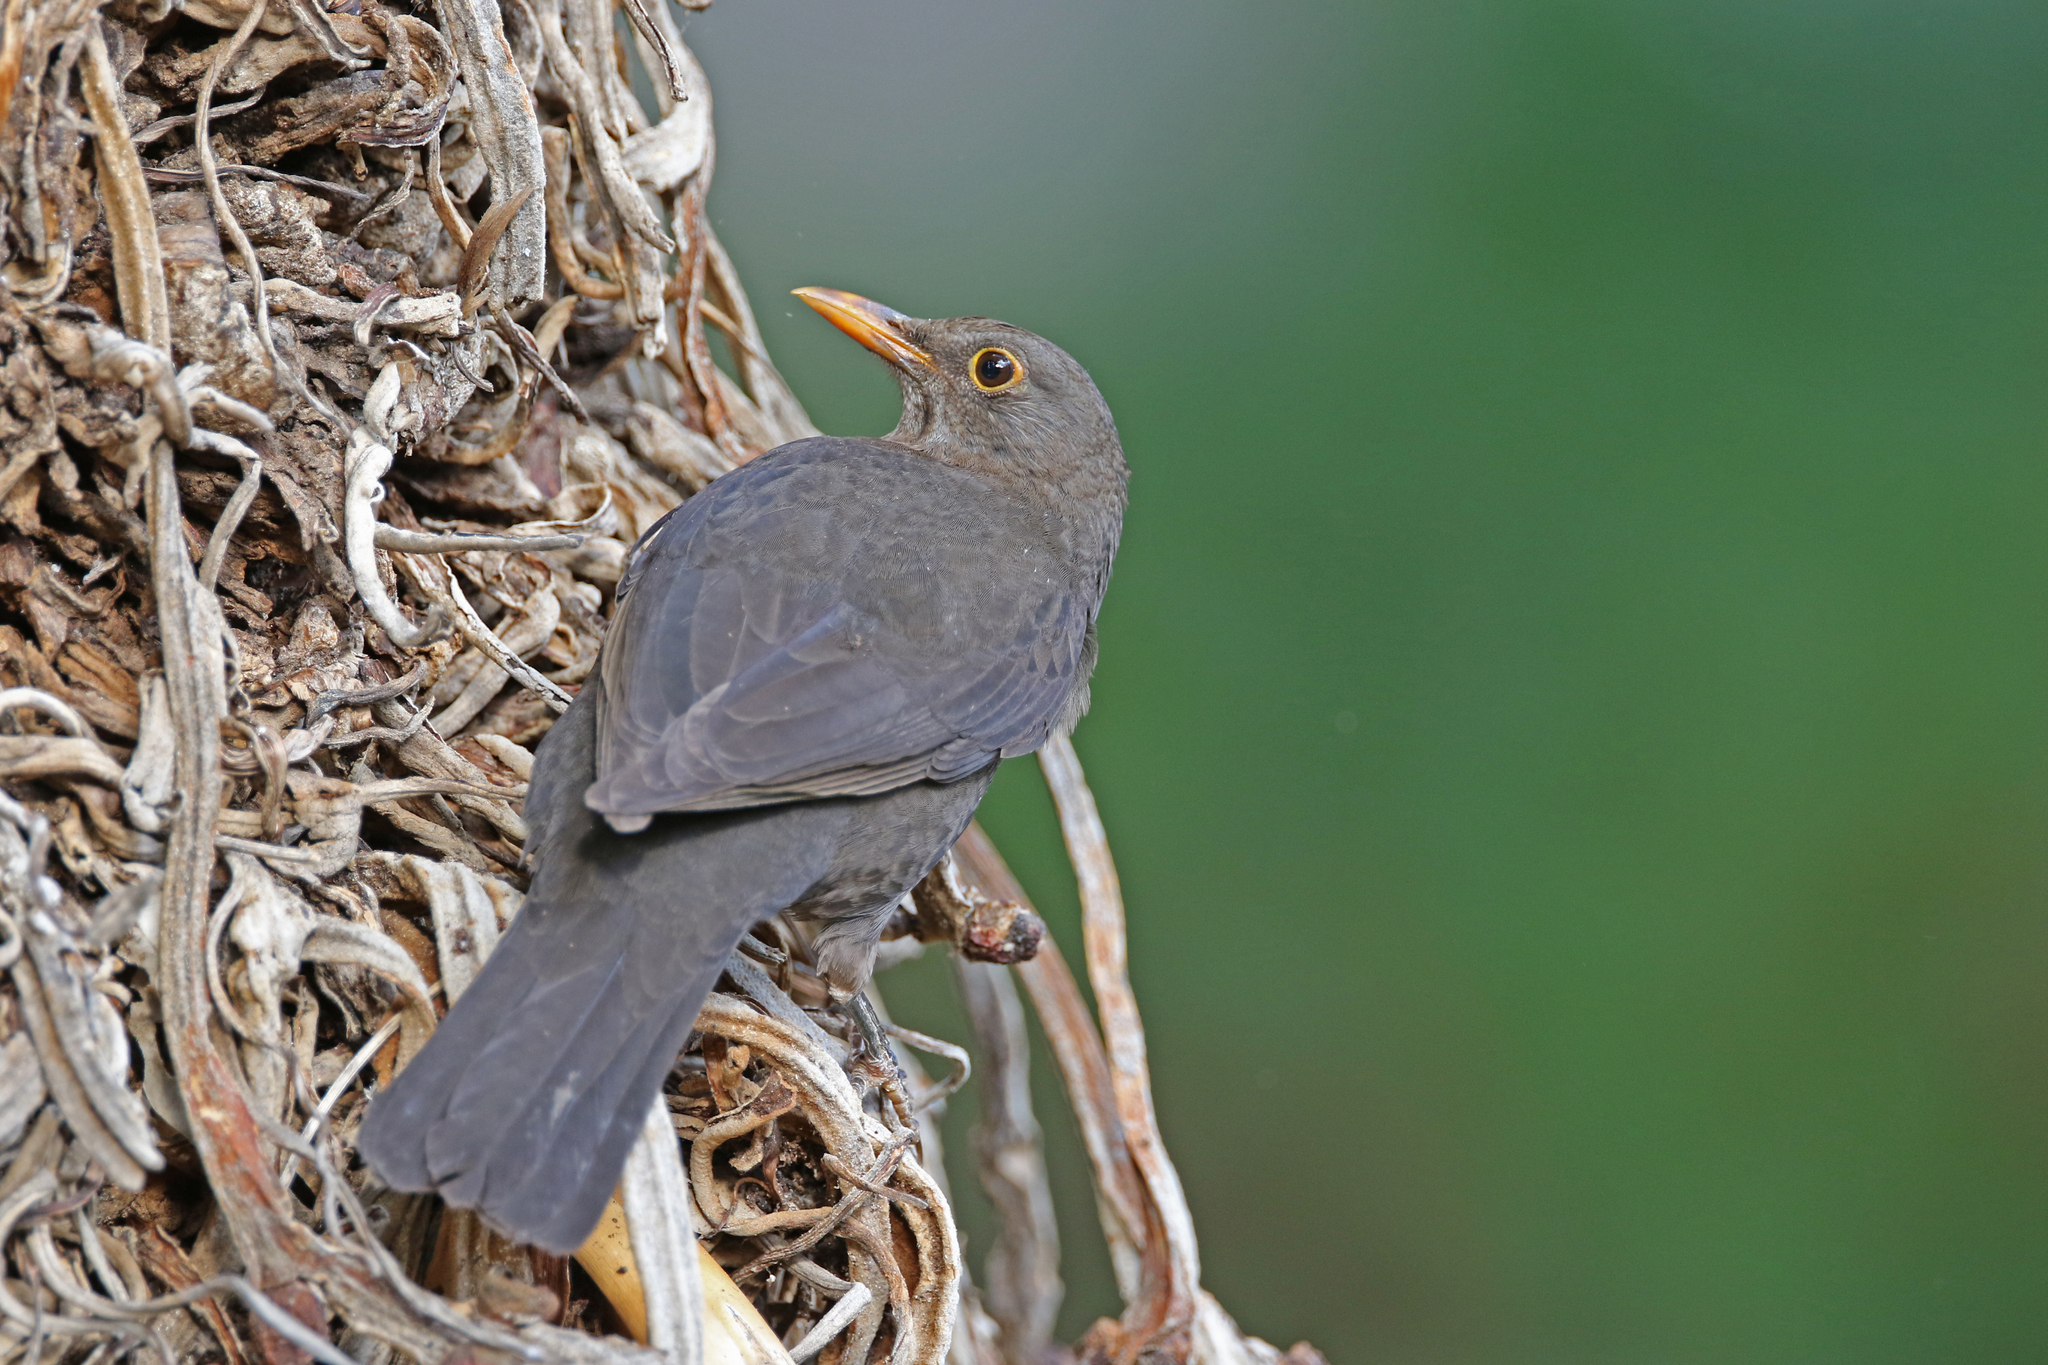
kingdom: Animalia
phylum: Chordata
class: Aves
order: Passeriformes
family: Turdidae
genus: Turdus
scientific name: Turdus merula
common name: Common blackbird
